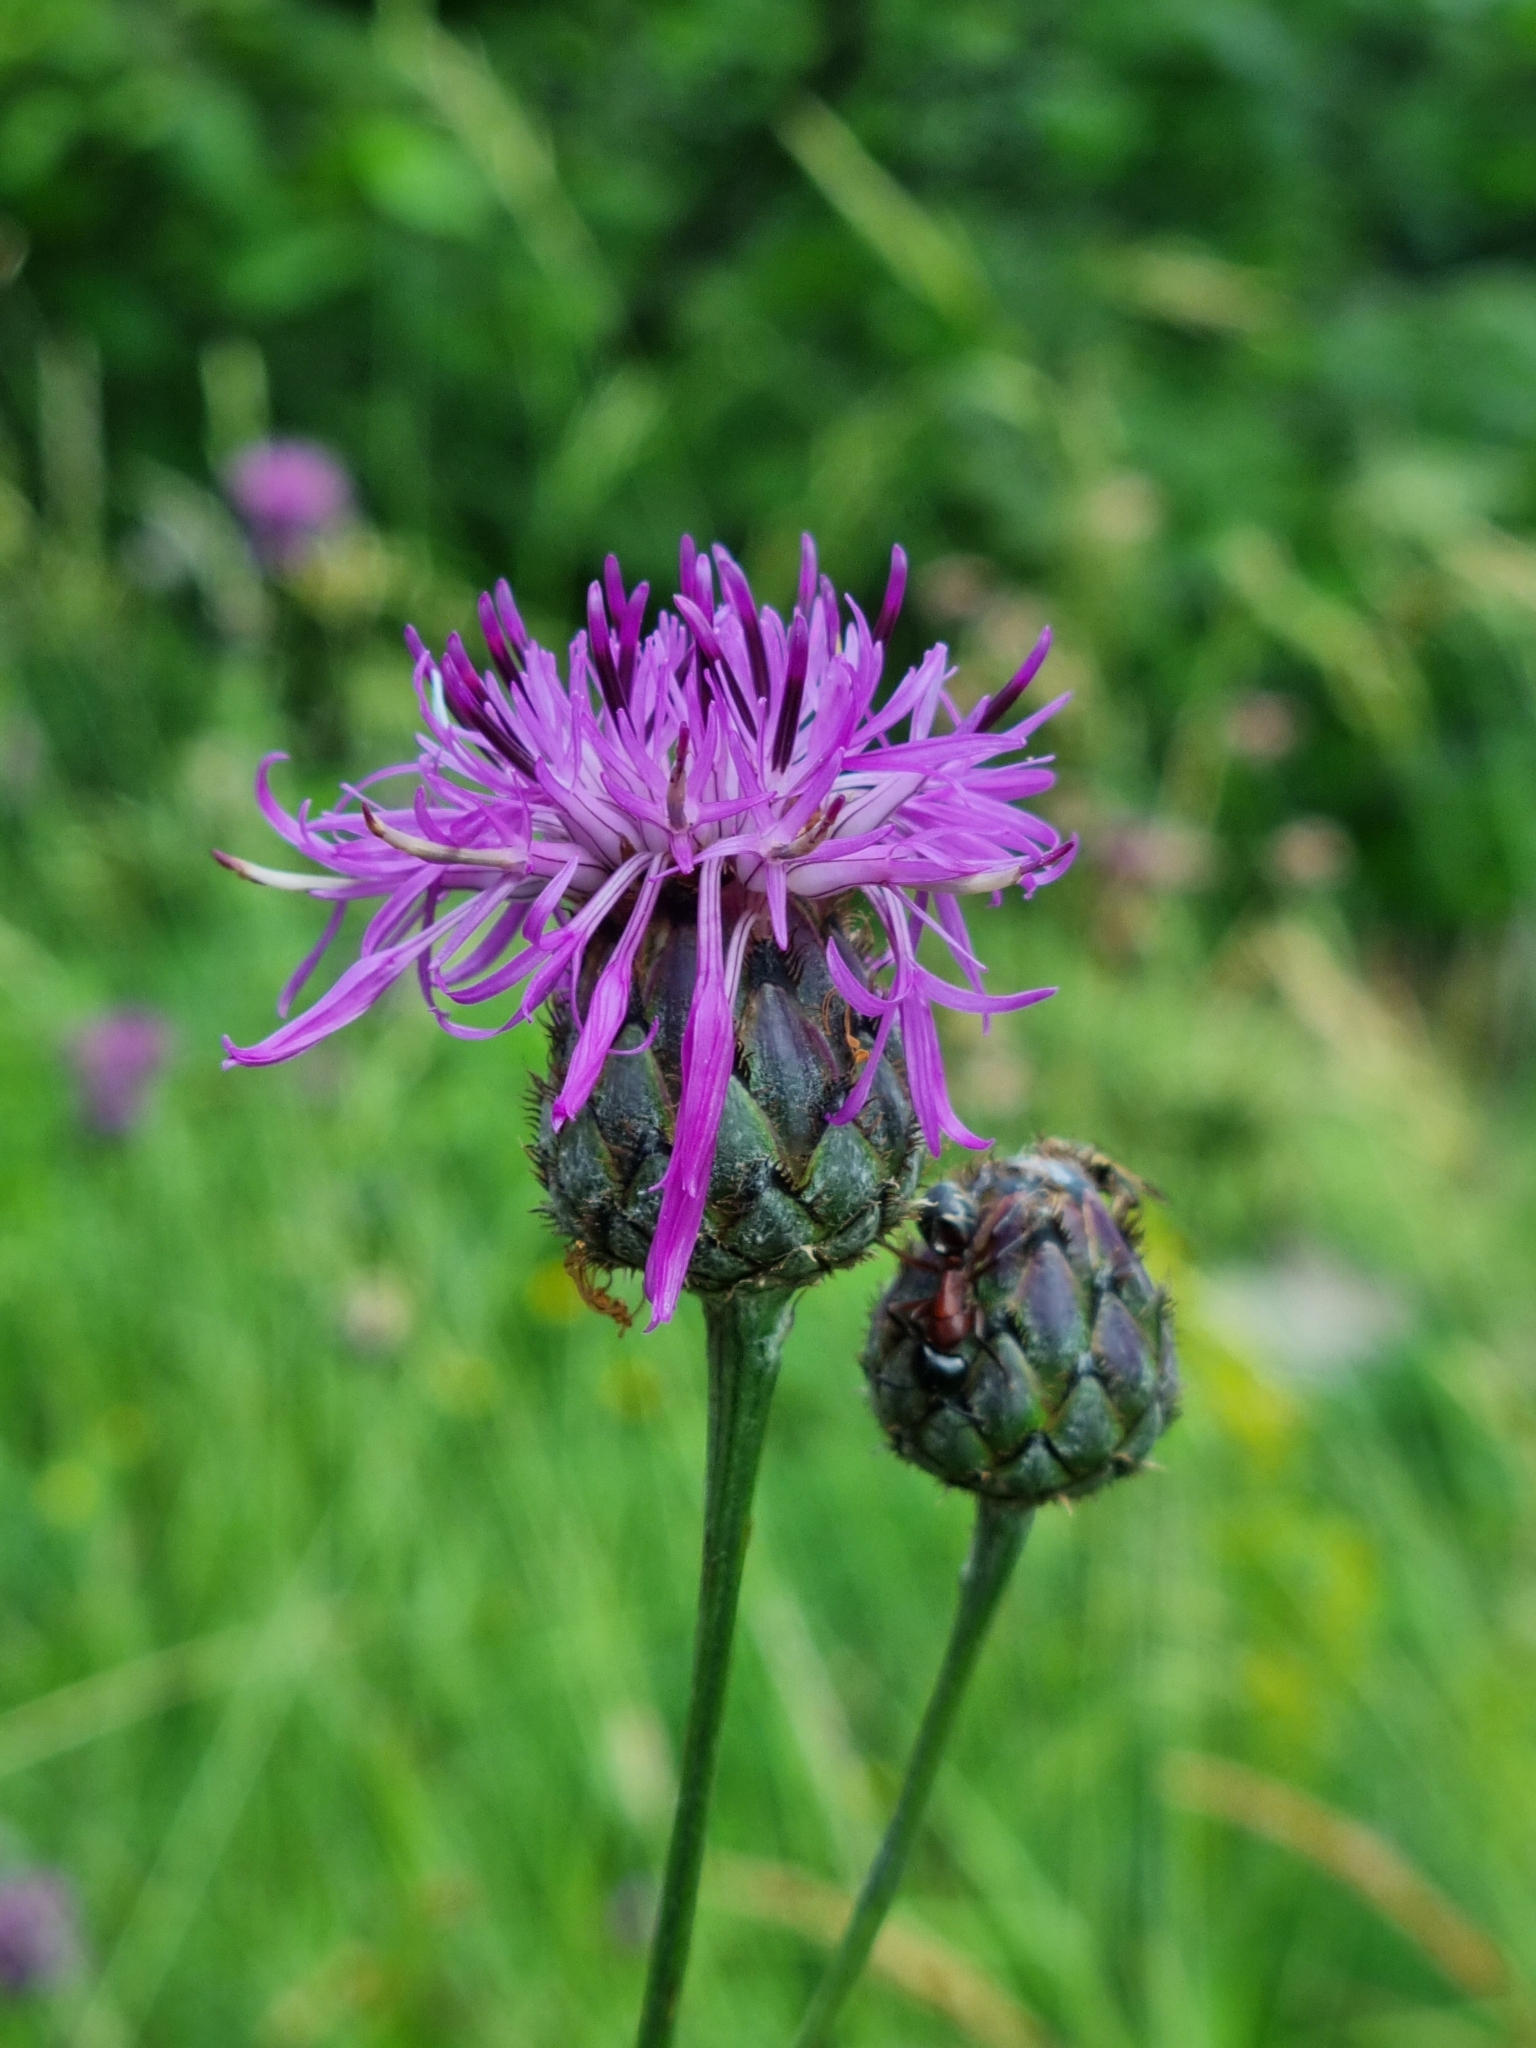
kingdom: Plantae
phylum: Tracheophyta
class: Magnoliopsida
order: Asterales
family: Asteraceae
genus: Centaurea
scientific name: Centaurea scabiosa
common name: Greater knapweed
